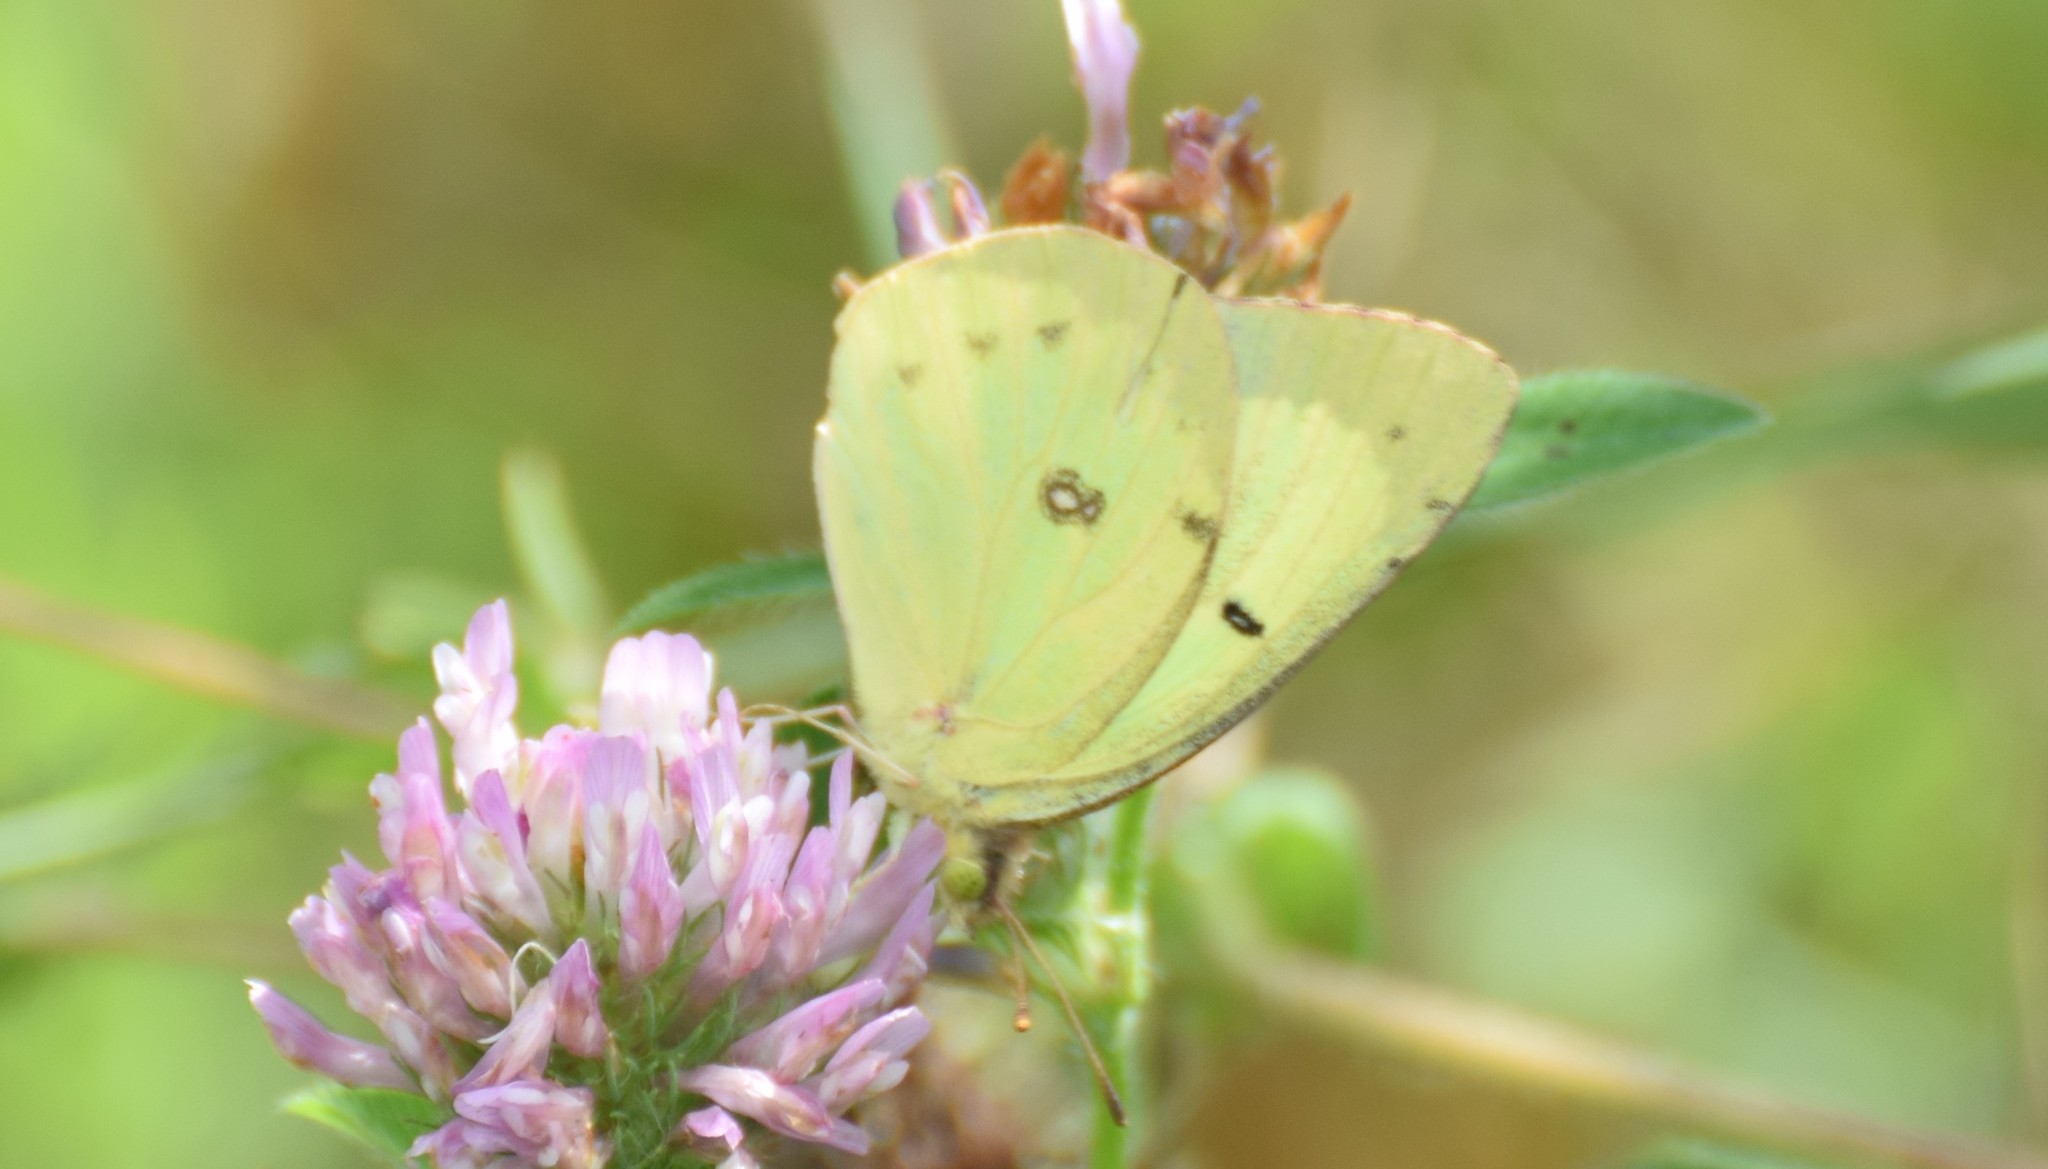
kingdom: Animalia
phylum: Arthropoda
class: Insecta
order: Lepidoptera
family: Pieridae
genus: Colias
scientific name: Colias philodice
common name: Clouded sulphur
